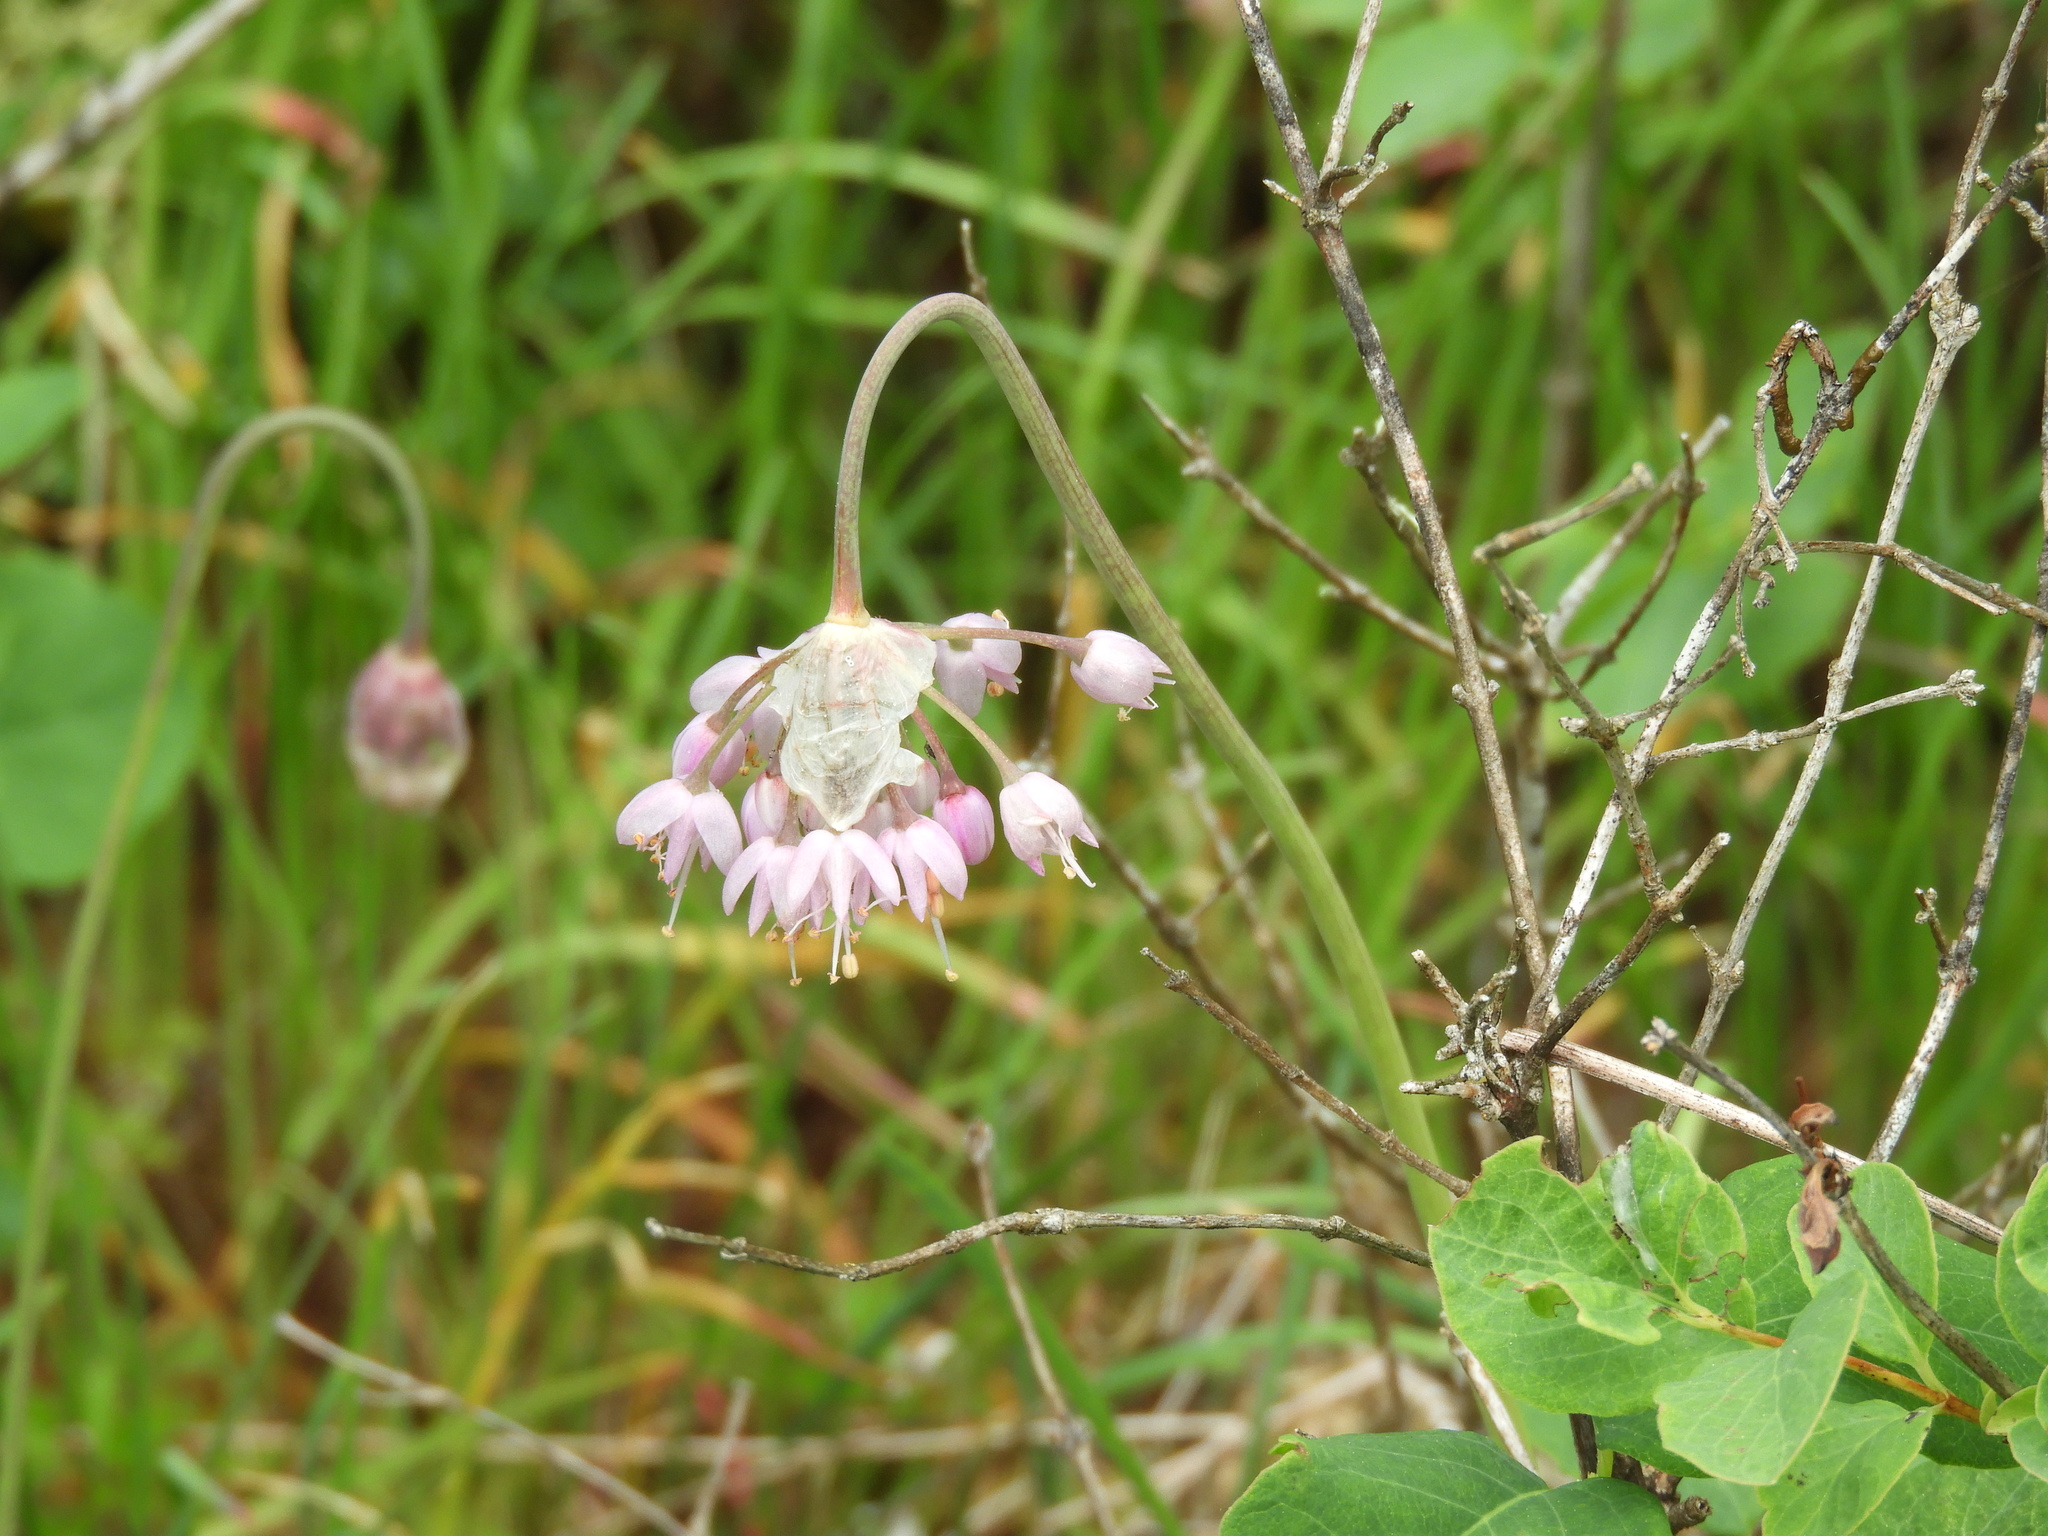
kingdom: Plantae
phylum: Tracheophyta
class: Liliopsida
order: Asparagales
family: Amaryllidaceae
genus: Allium
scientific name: Allium cernuum
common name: Nodding onion
